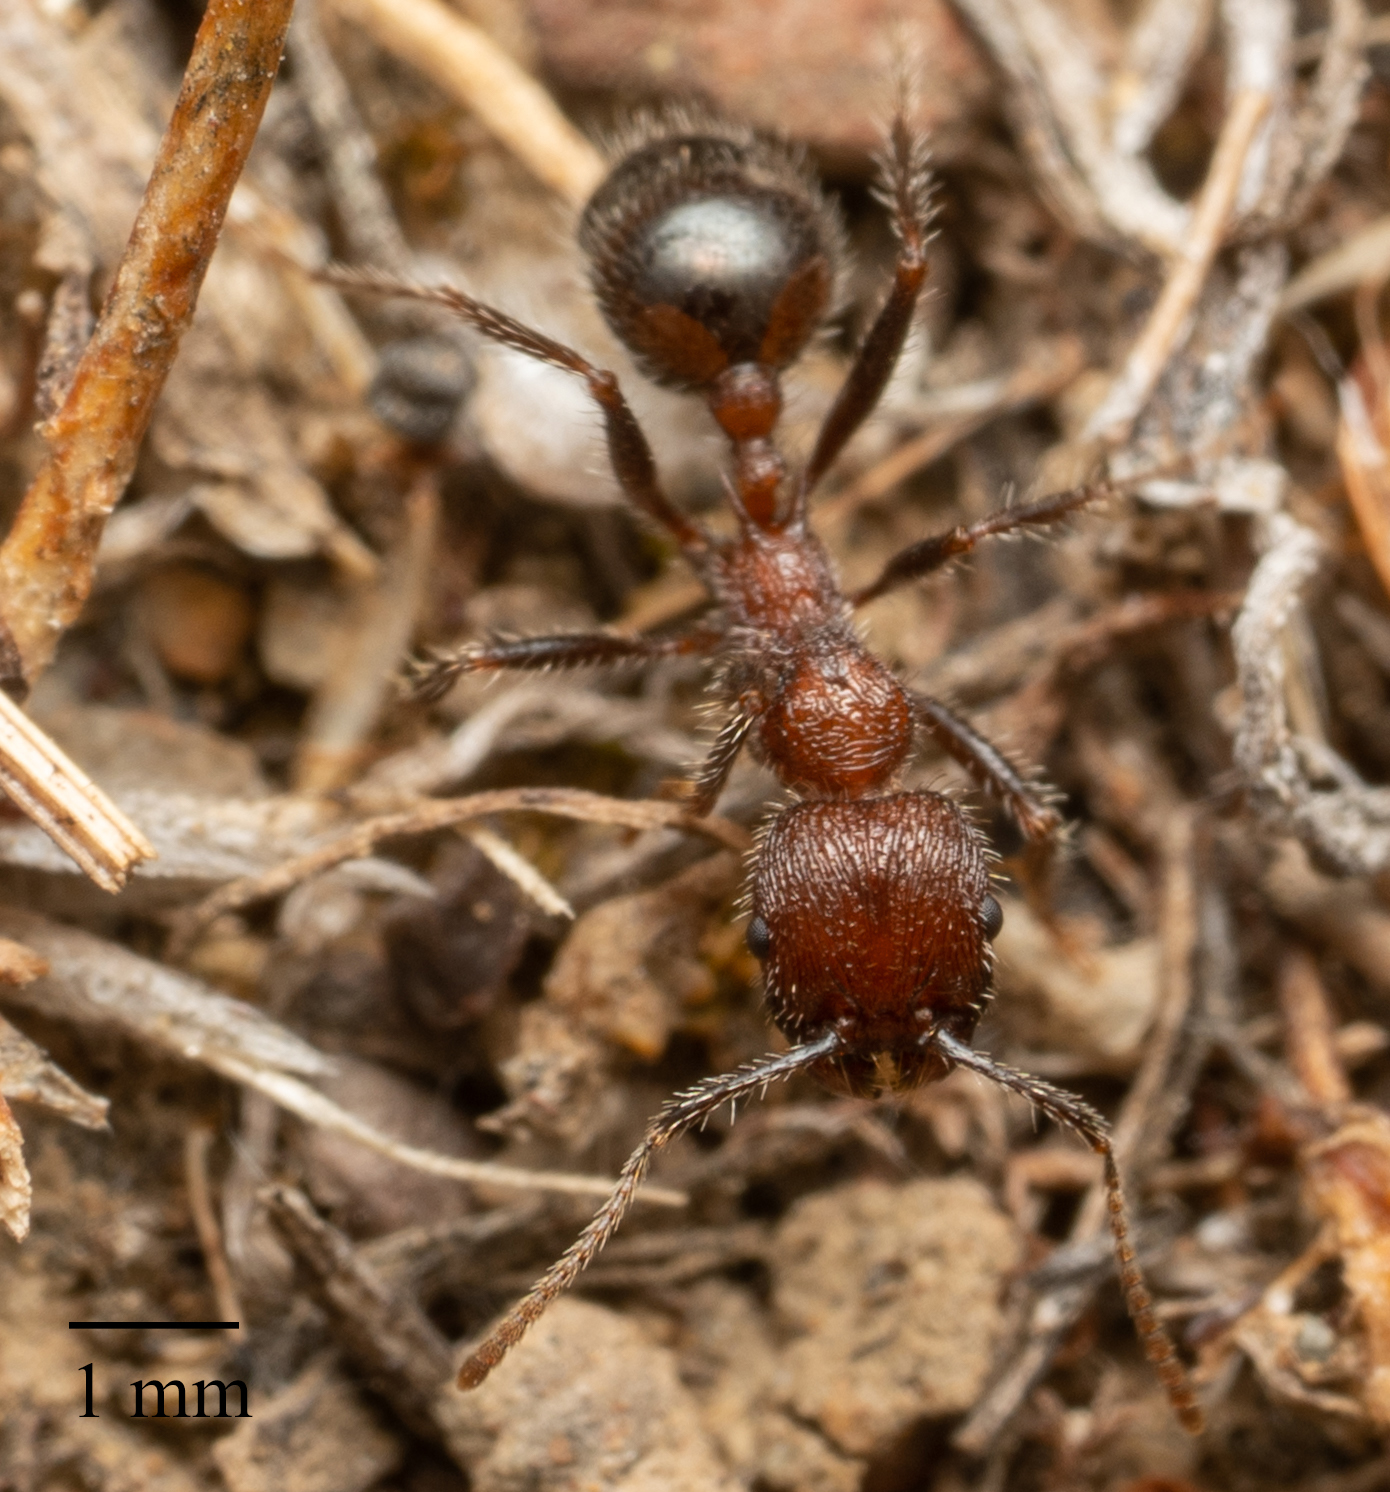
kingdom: Animalia
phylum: Arthropoda
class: Insecta
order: Hymenoptera
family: Formicidae
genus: Veromessor
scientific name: Veromessor andrei
